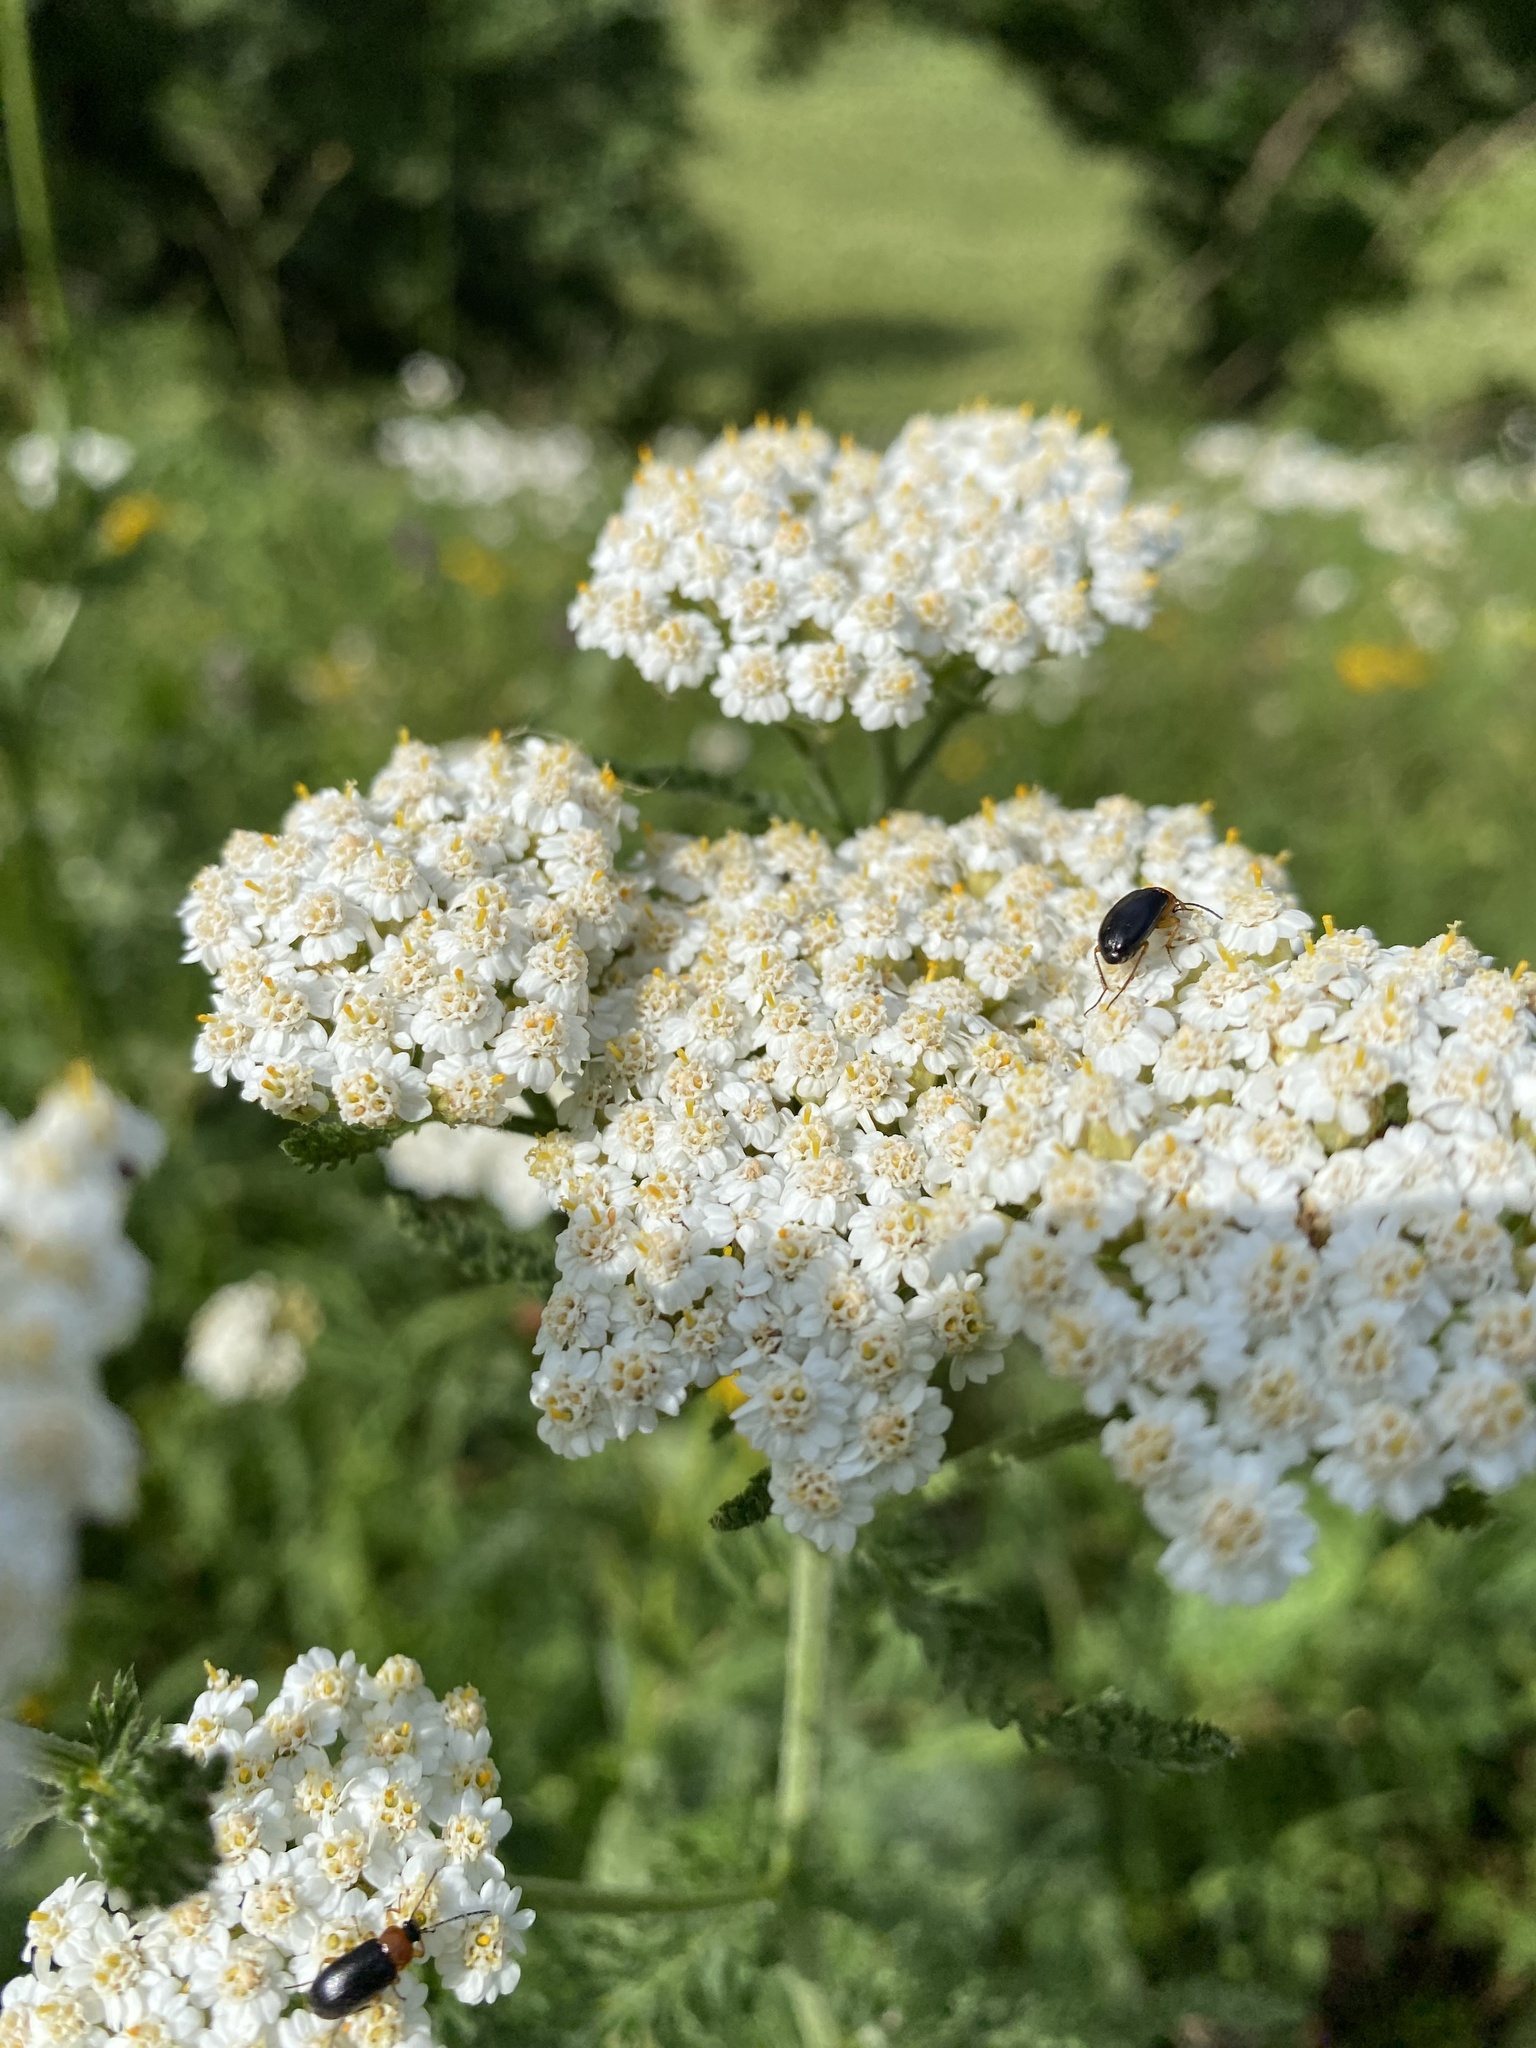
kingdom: Plantae
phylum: Tracheophyta
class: Magnoliopsida
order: Asterales
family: Asteraceae
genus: Achillea
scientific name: Achillea millefolium
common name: Yarrow
